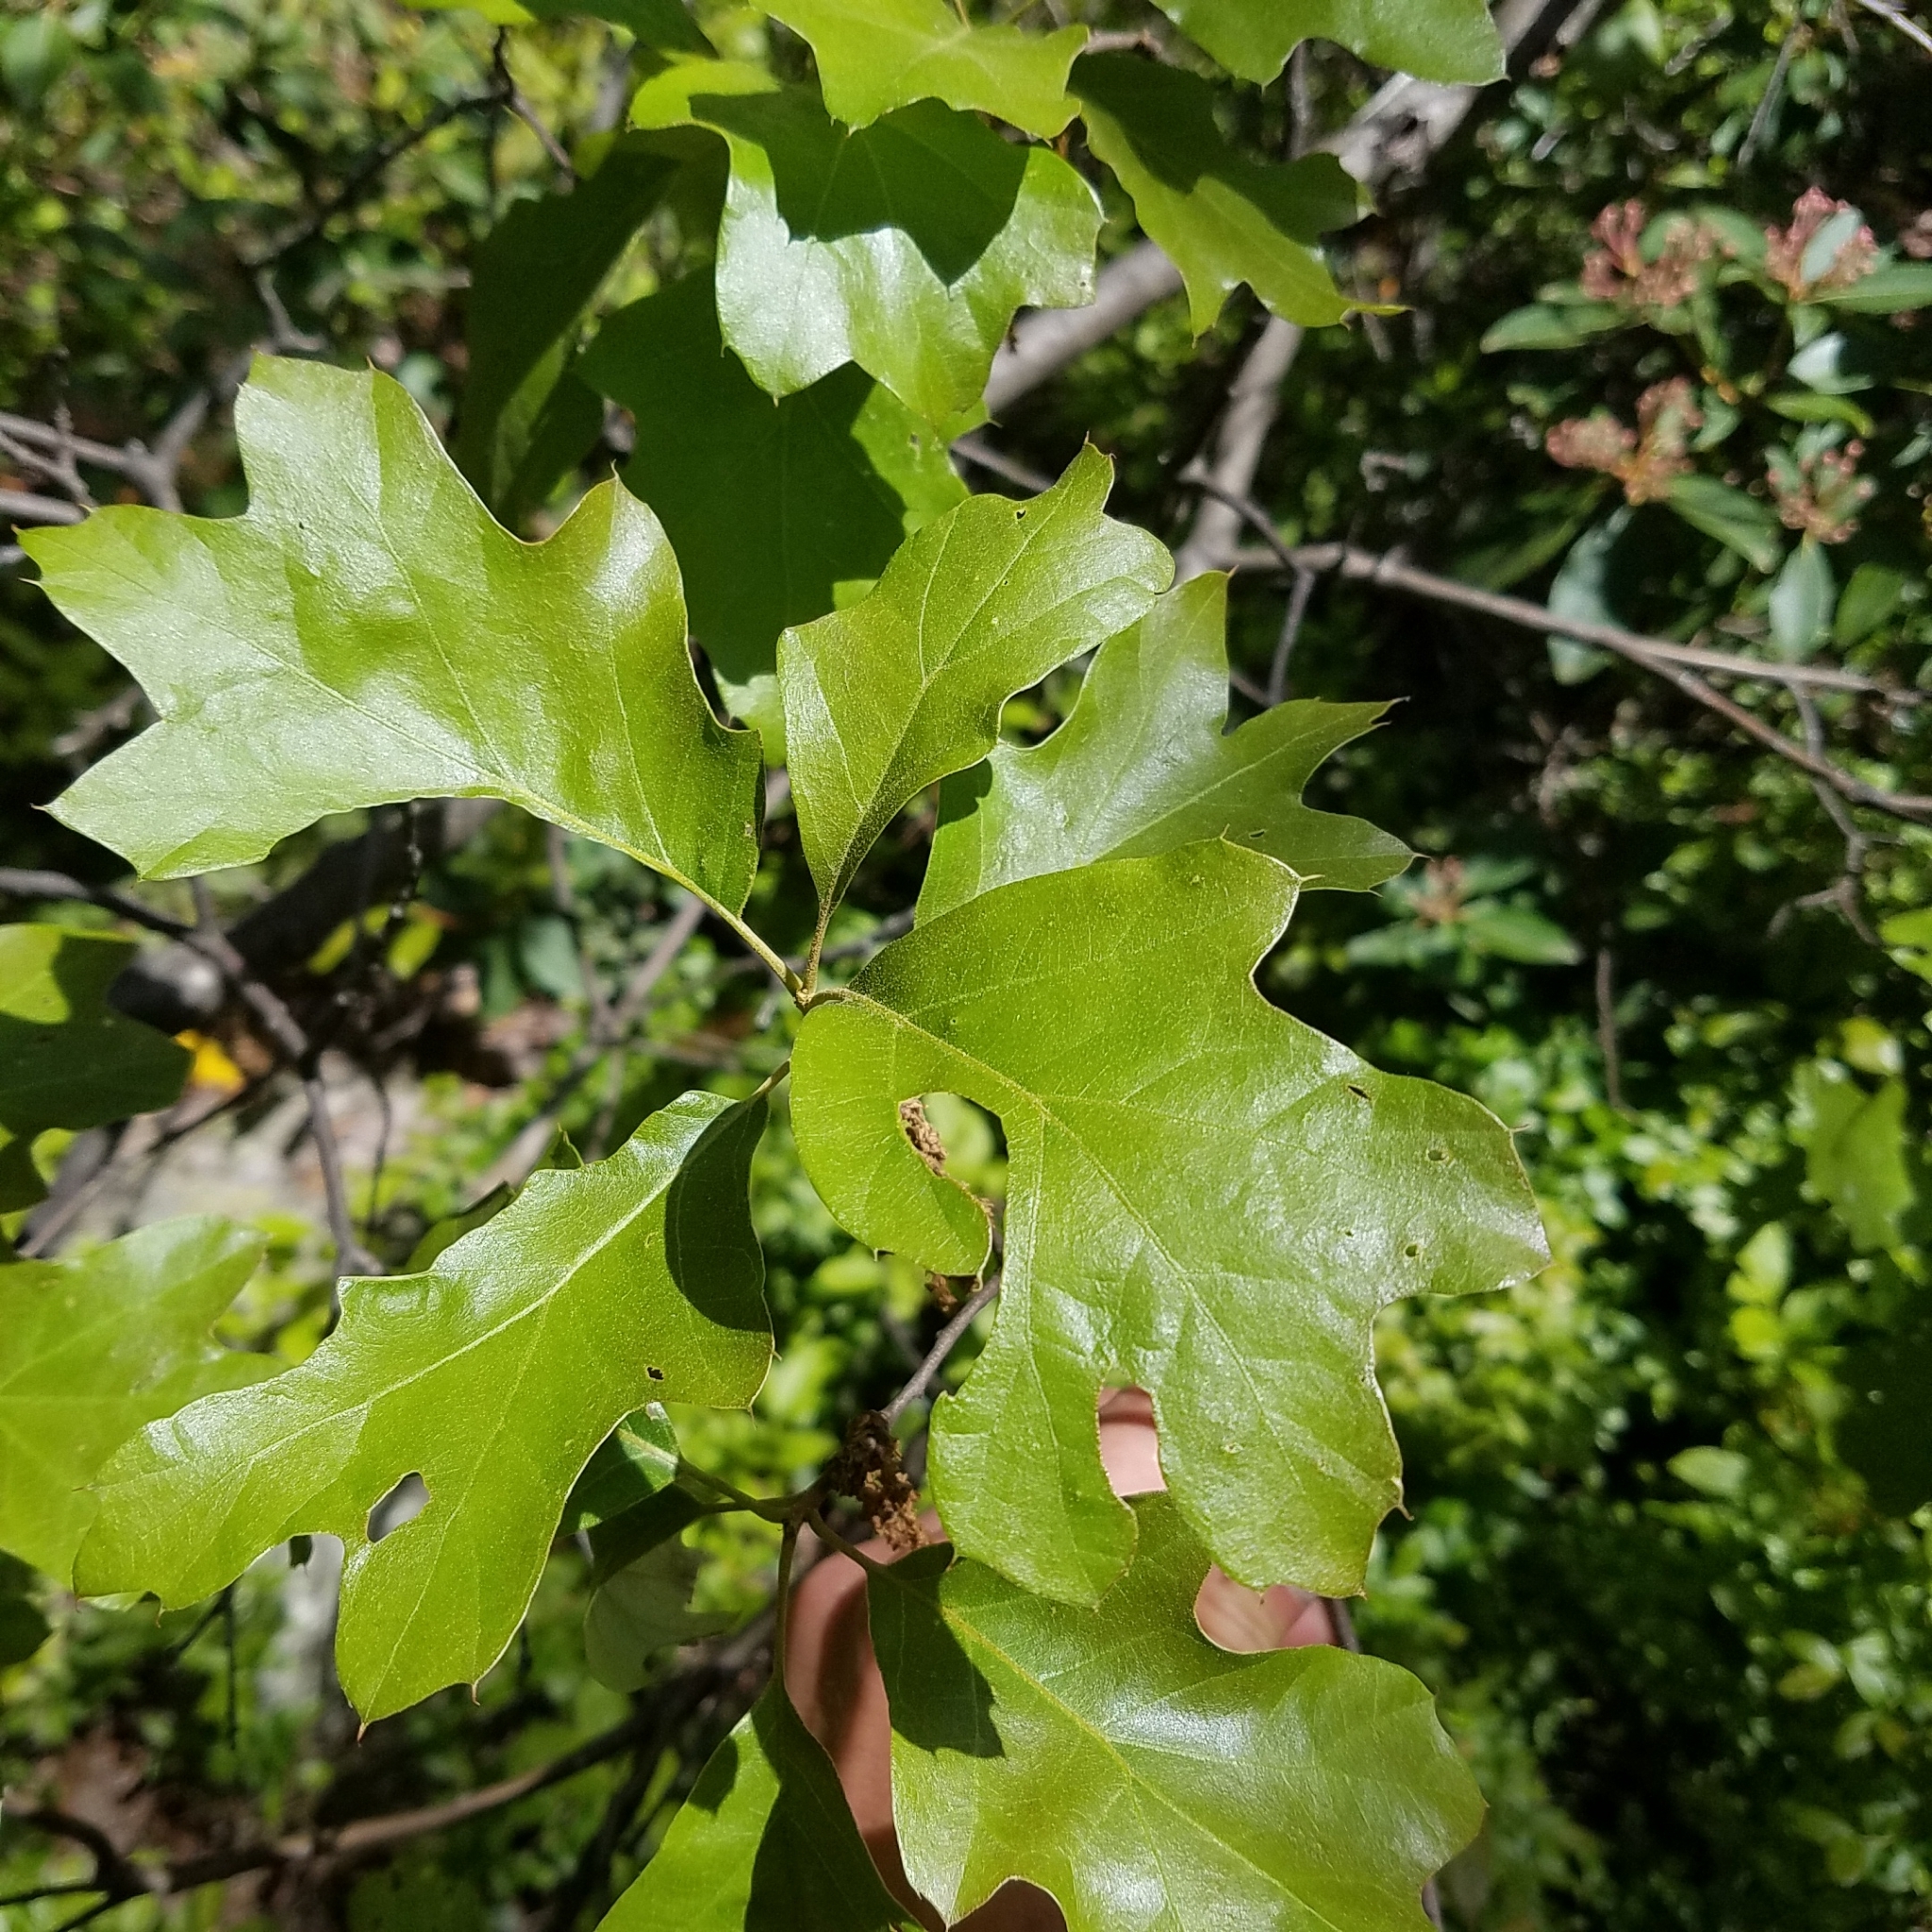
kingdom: Plantae
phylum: Tracheophyta
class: Magnoliopsida
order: Fagales
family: Fagaceae
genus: Quercus
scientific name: Quercus ilicifolia
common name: Bear oak
